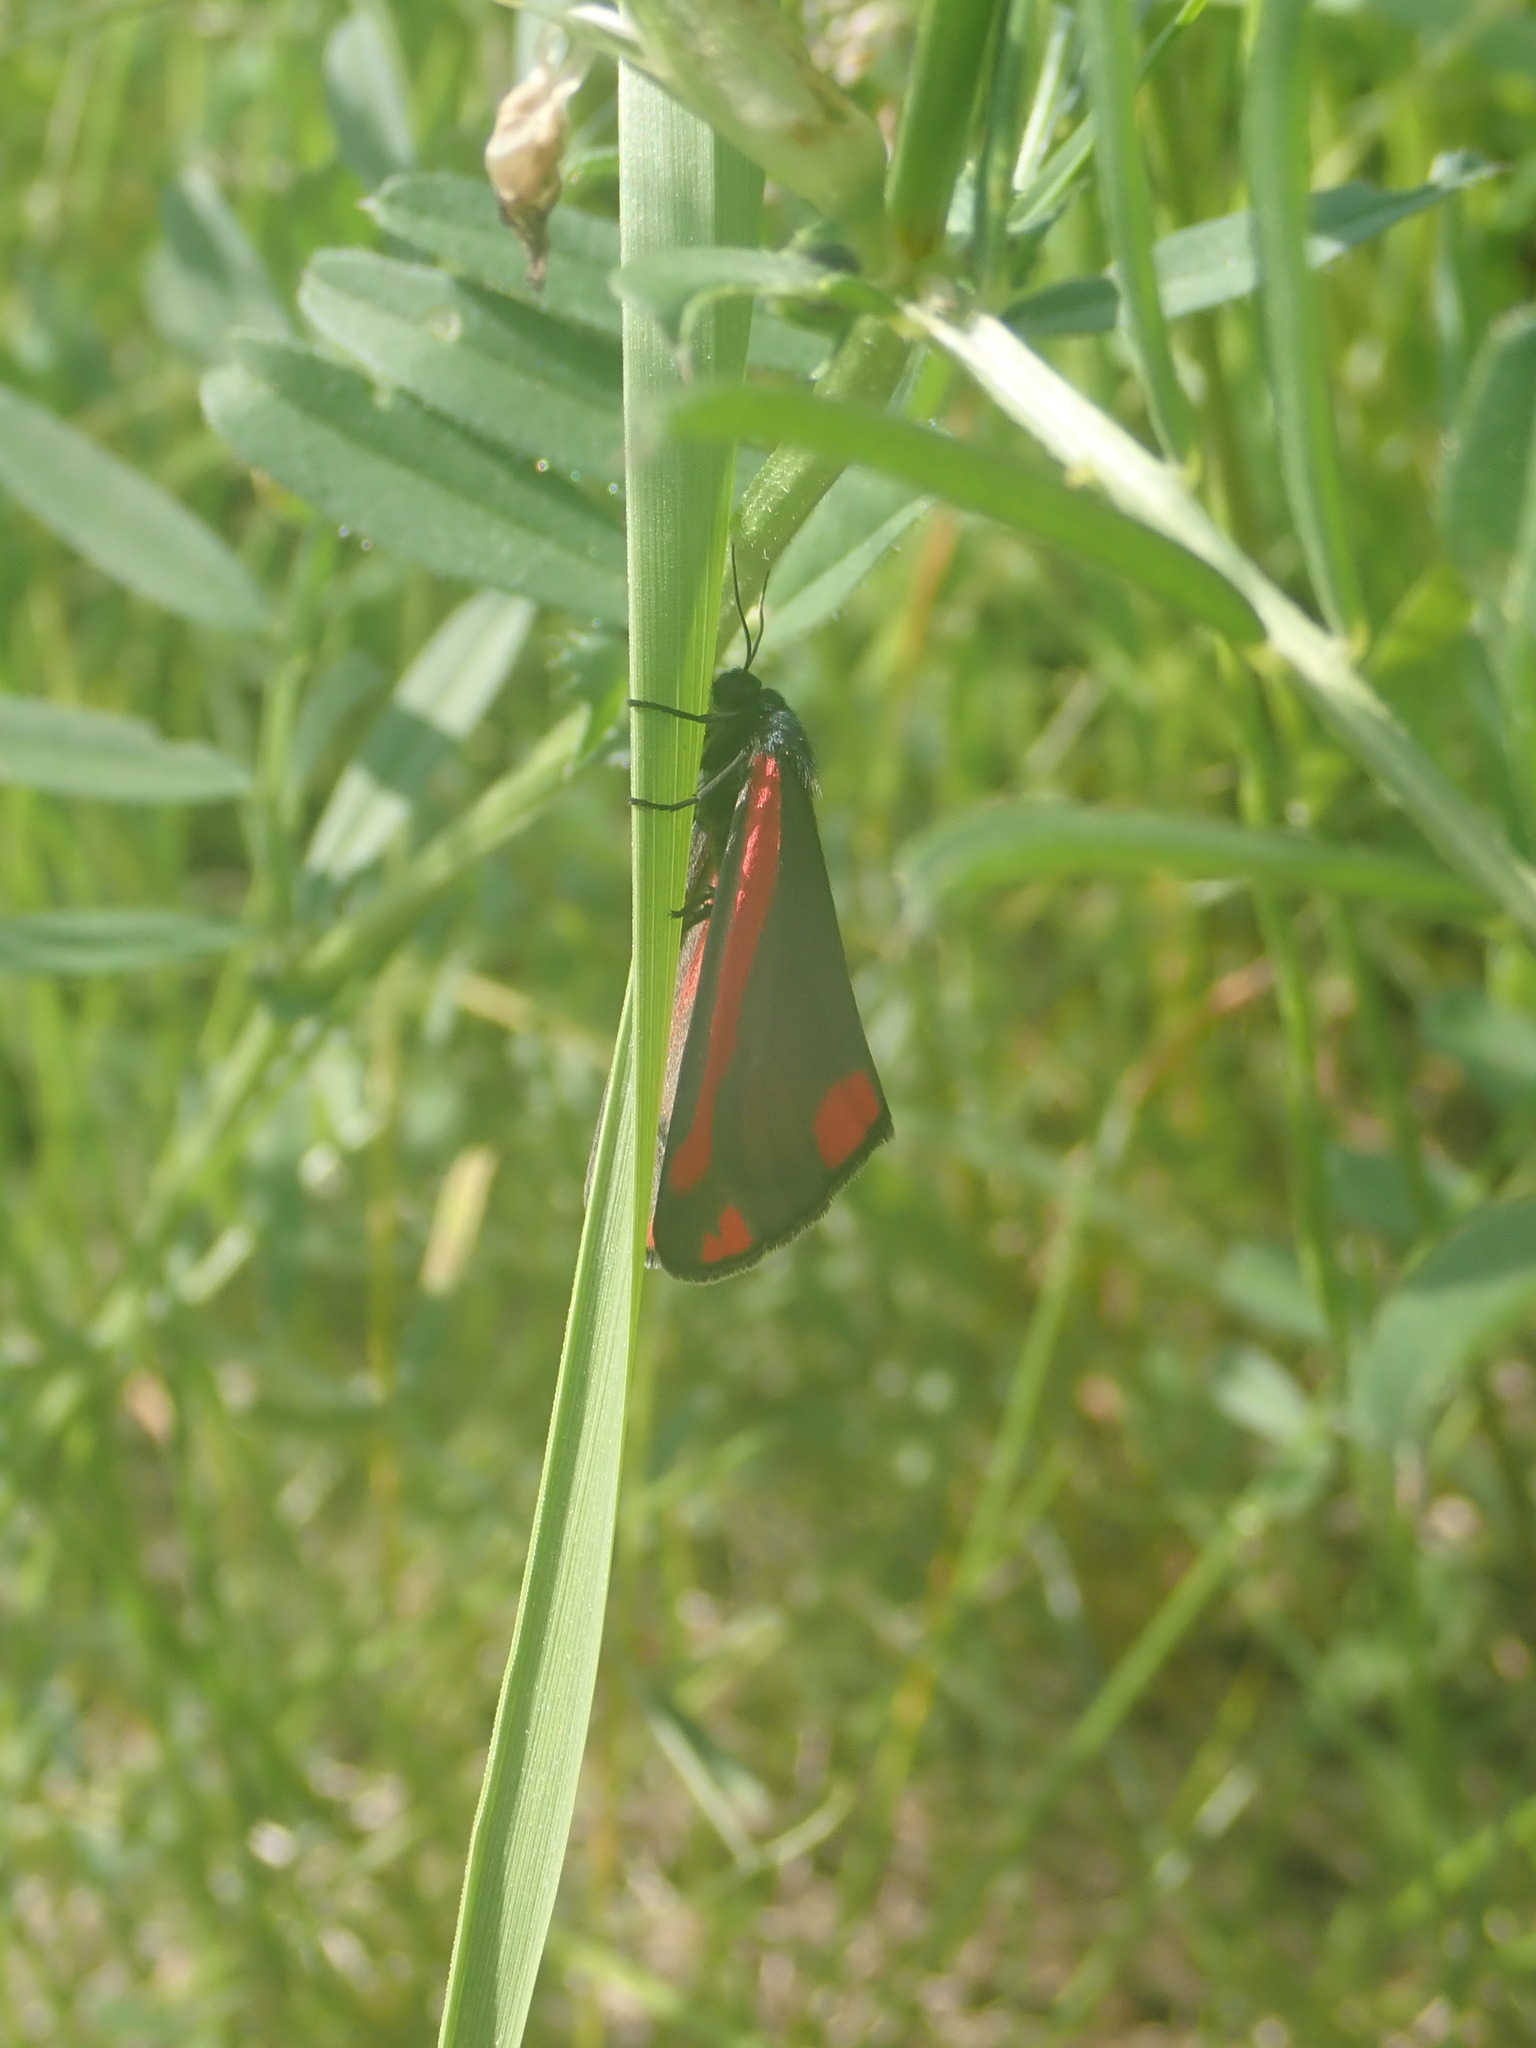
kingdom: Animalia
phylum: Arthropoda
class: Insecta
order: Lepidoptera
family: Erebidae
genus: Tyria
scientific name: Tyria jacobaeae
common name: Cinnabar
